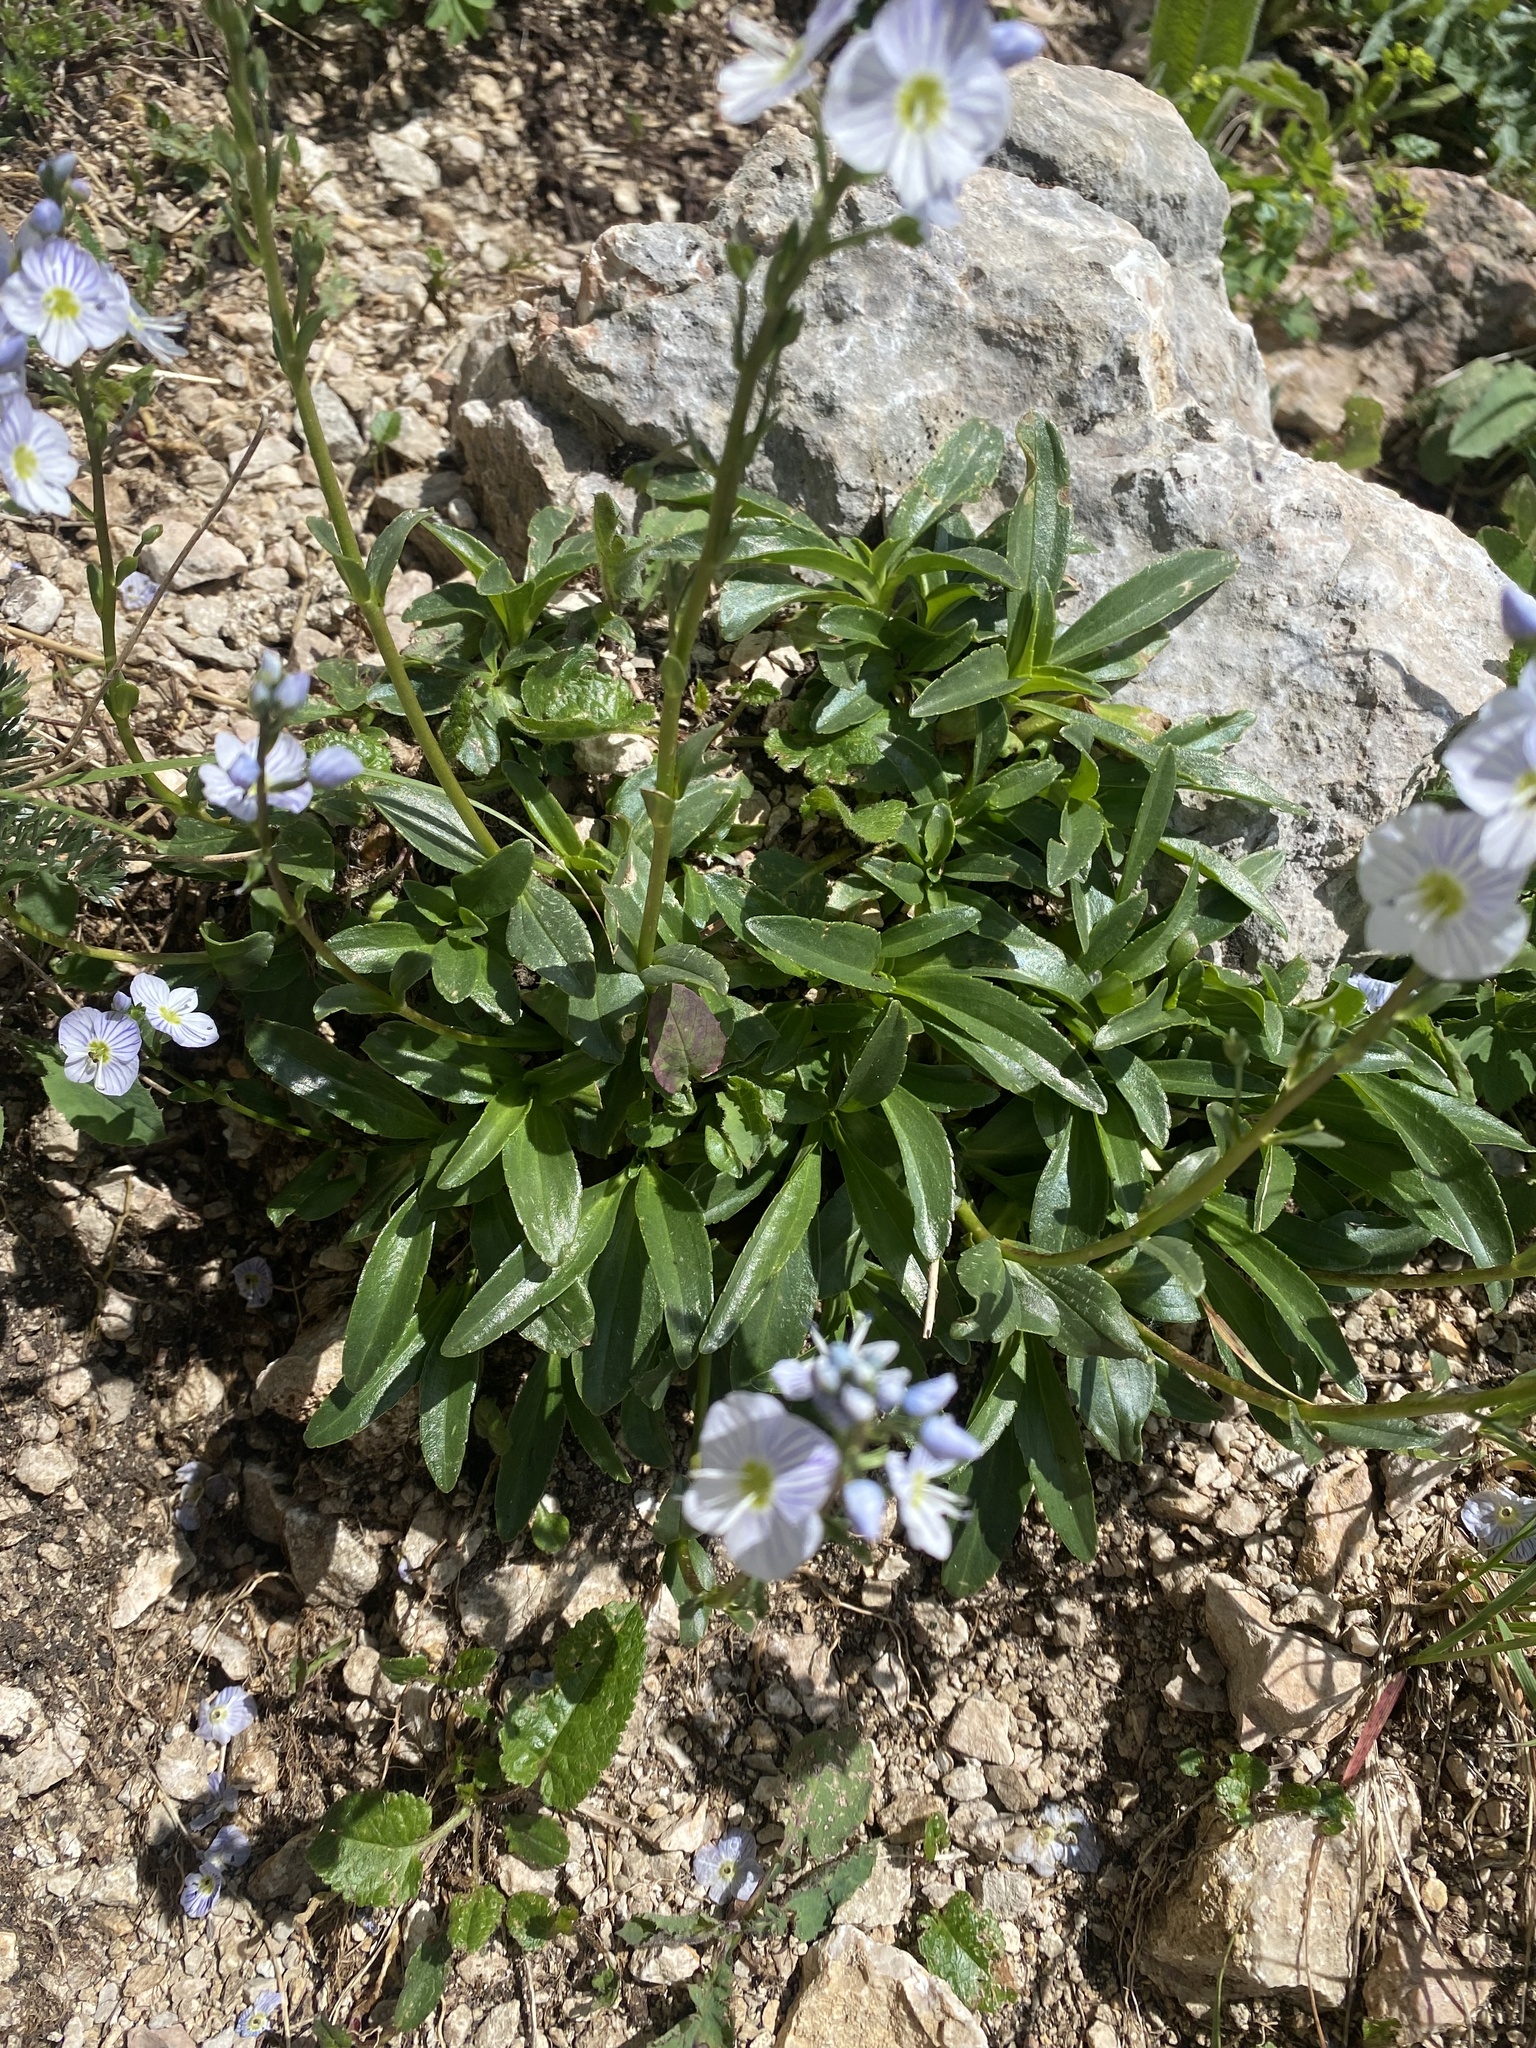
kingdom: Plantae
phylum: Tracheophyta
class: Magnoliopsida
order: Lamiales
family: Plantaginaceae
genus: Veronica
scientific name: Veronica gentianoides
